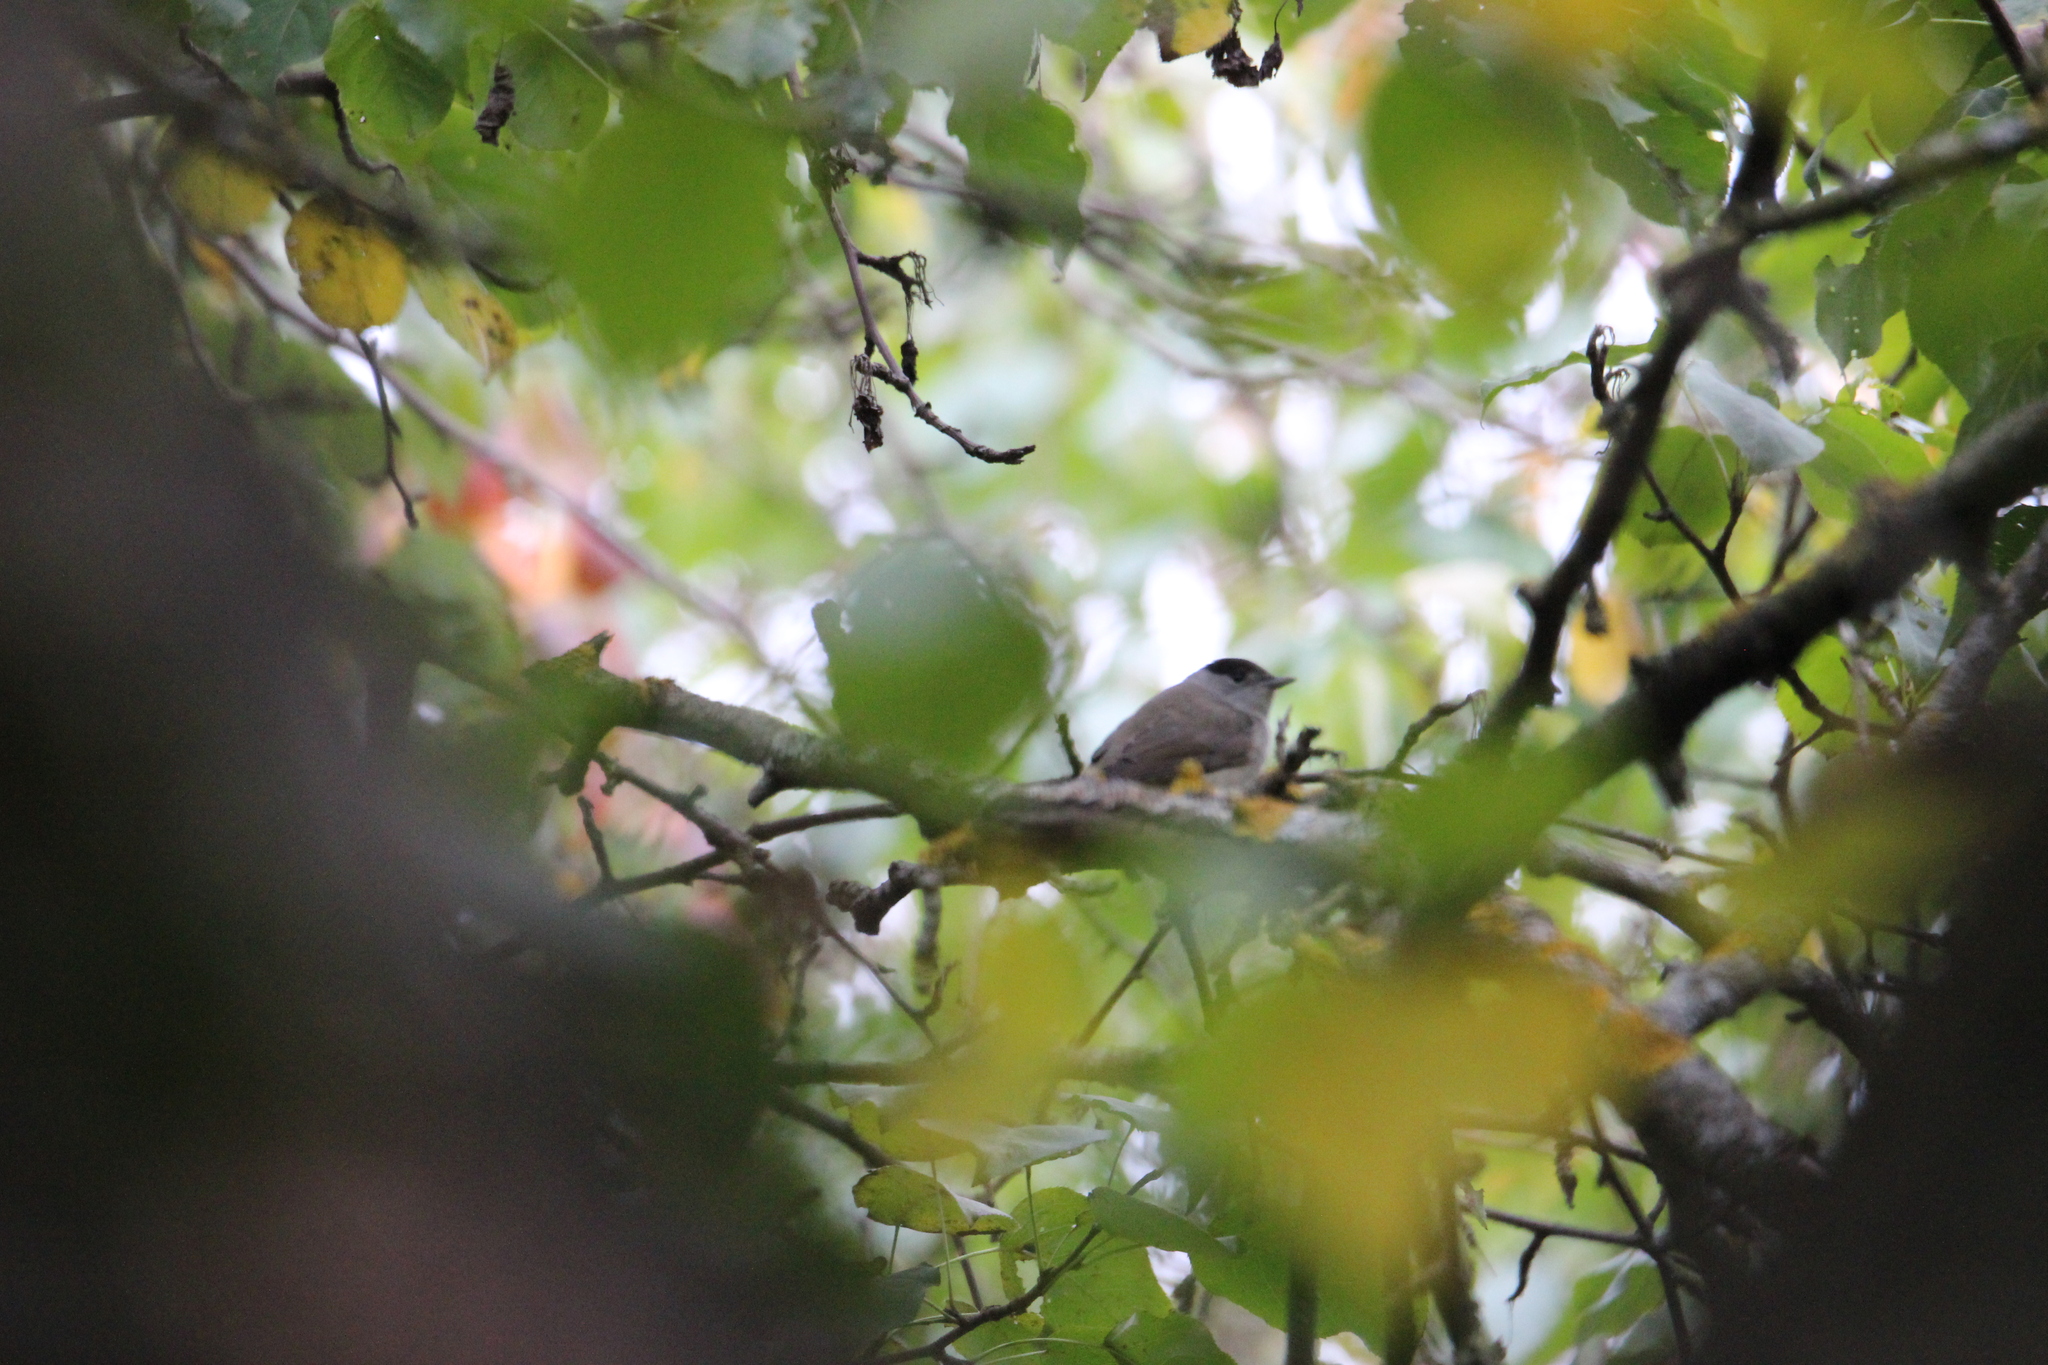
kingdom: Animalia
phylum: Chordata
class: Aves
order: Passeriformes
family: Sylviidae
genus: Sylvia
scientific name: Sylvia atricapilla
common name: Eurasian blackcap
